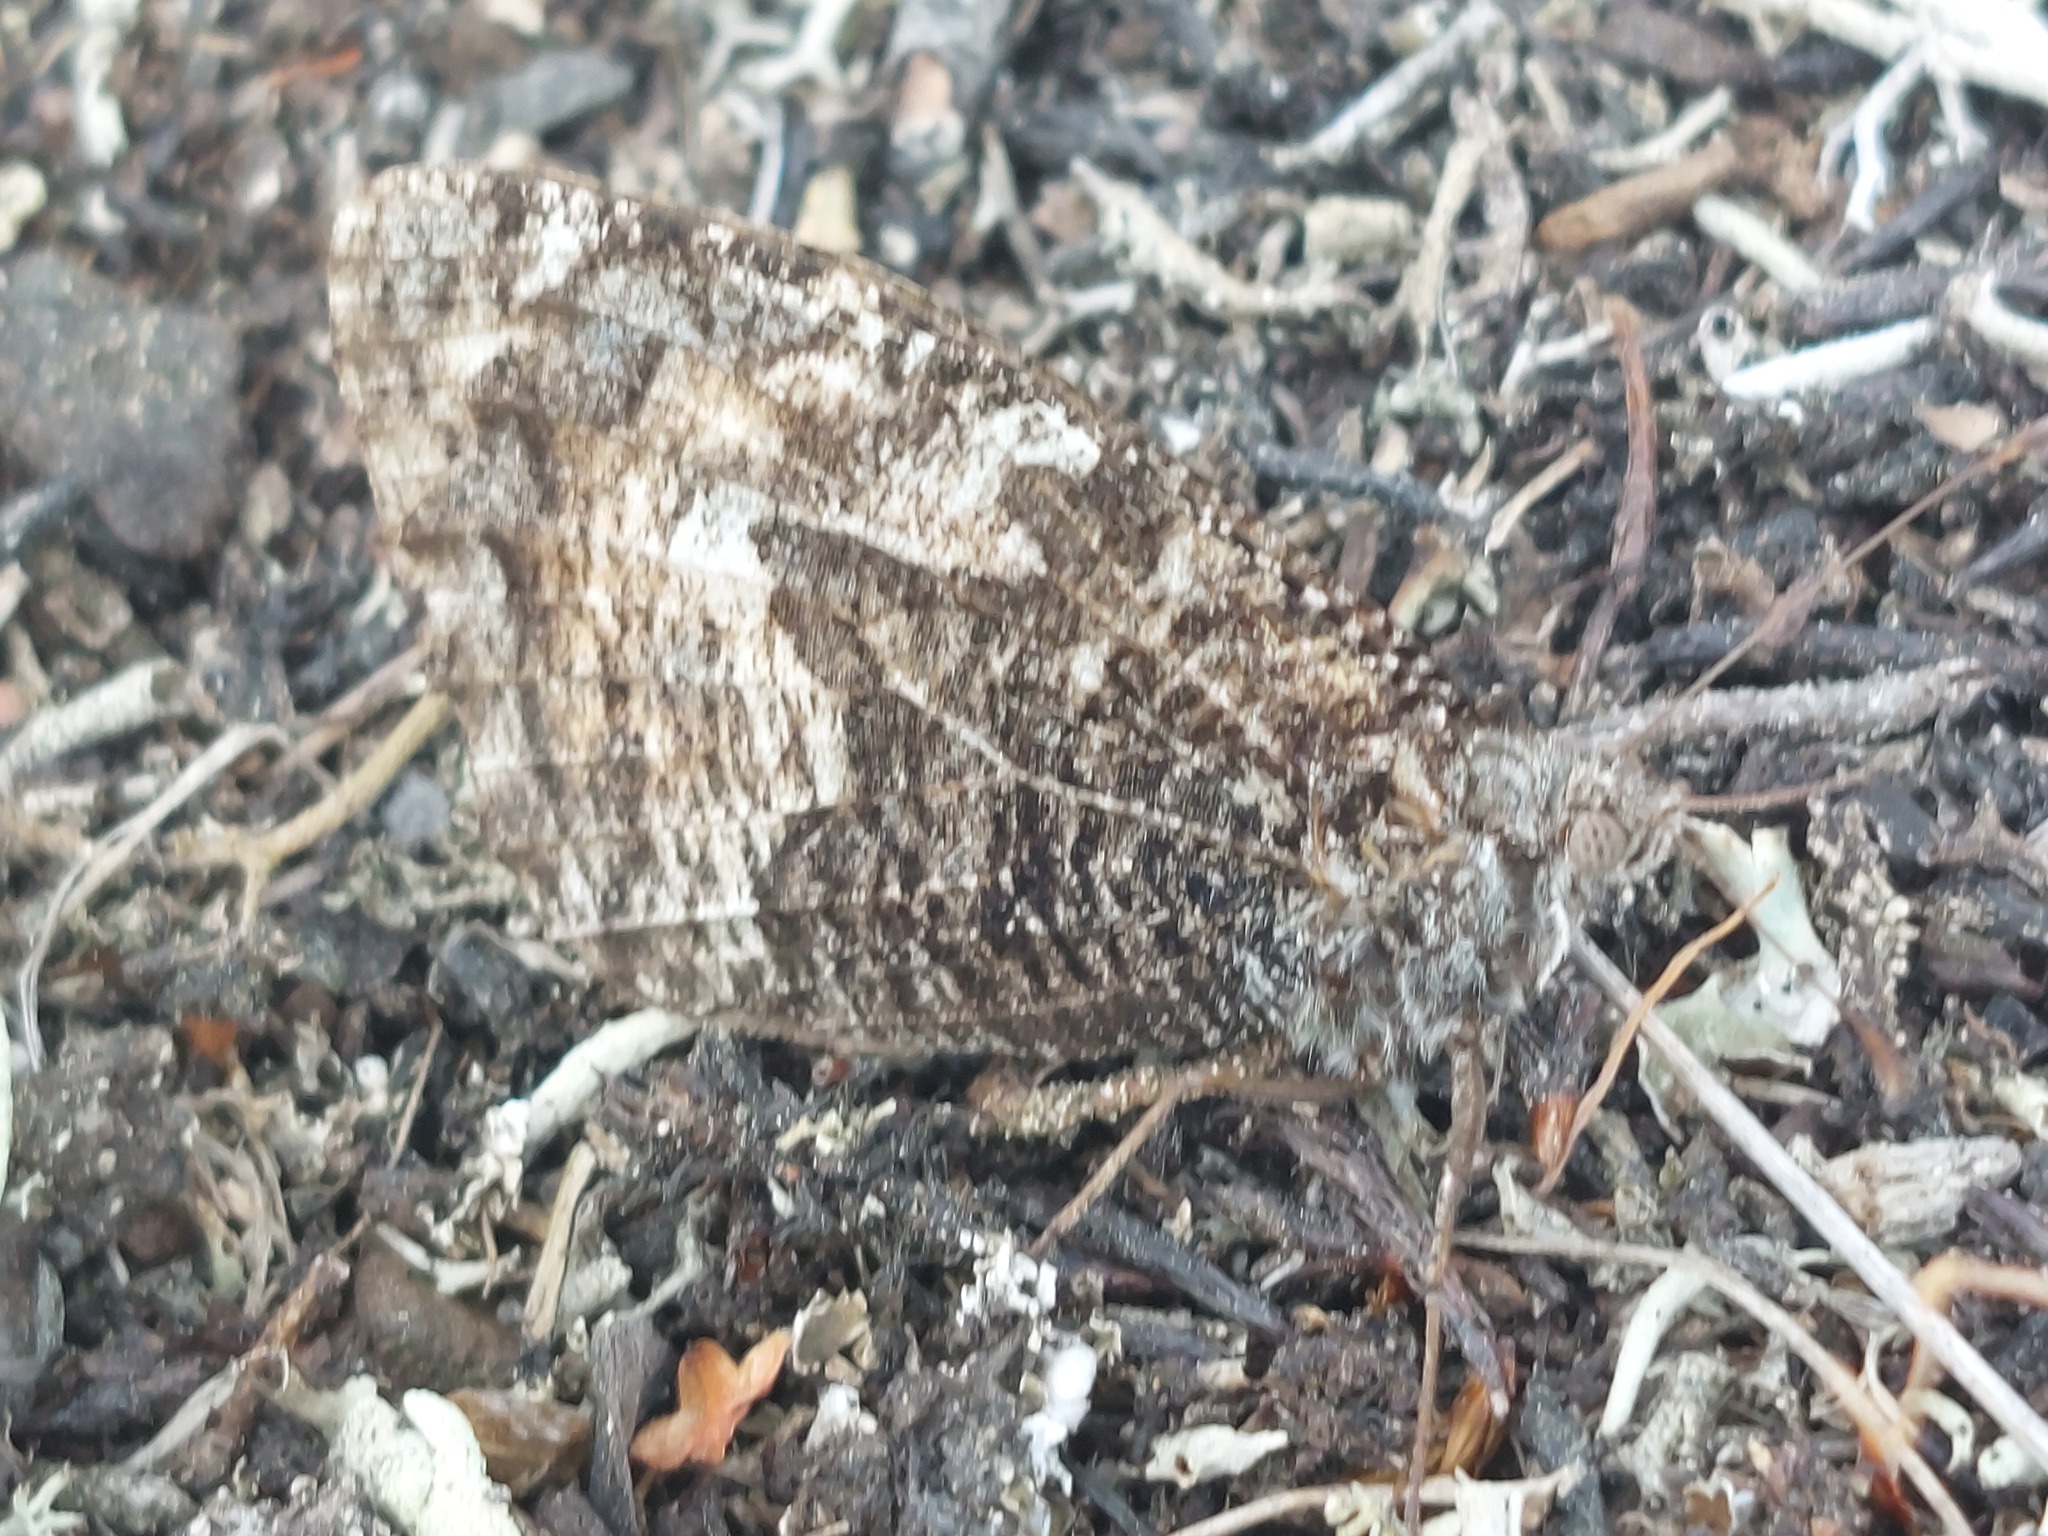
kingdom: Animalia
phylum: Arthropoda
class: Insecta
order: Lepidoptera
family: Nymphalidae
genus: Hipparchia
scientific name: Hipparchia semele
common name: Grayling
